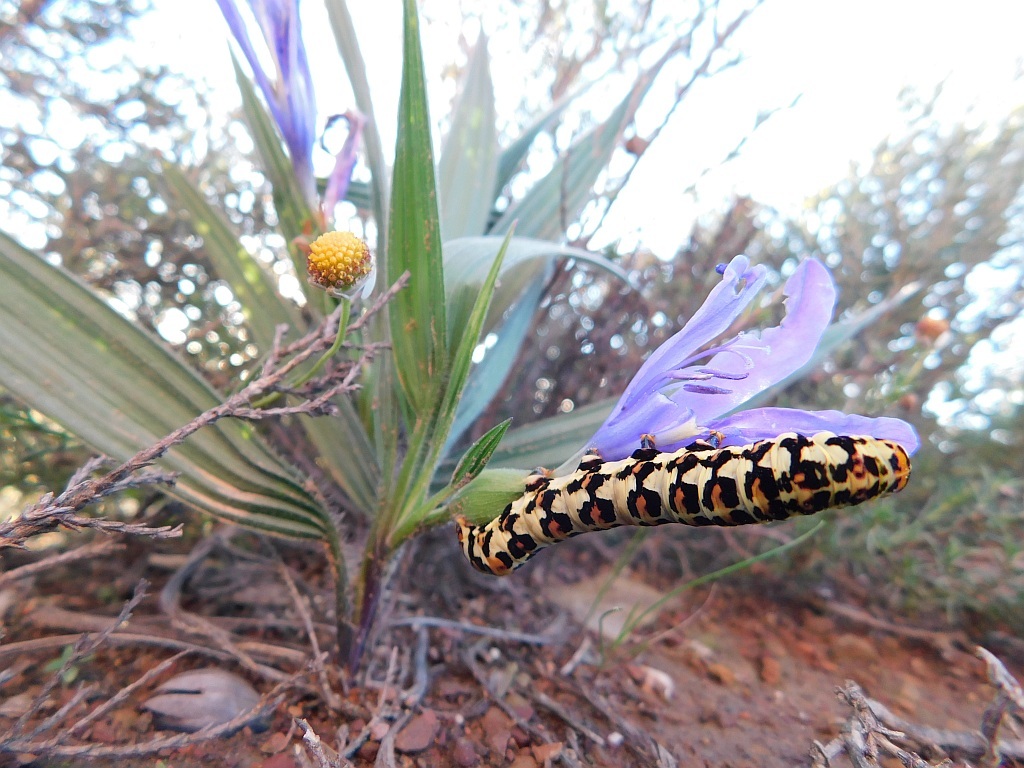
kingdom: Animalia
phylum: Arthropoda
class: Insecta
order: Lepidoptera
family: Noctuidae
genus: Diaphone
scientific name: Diaphone eumela
